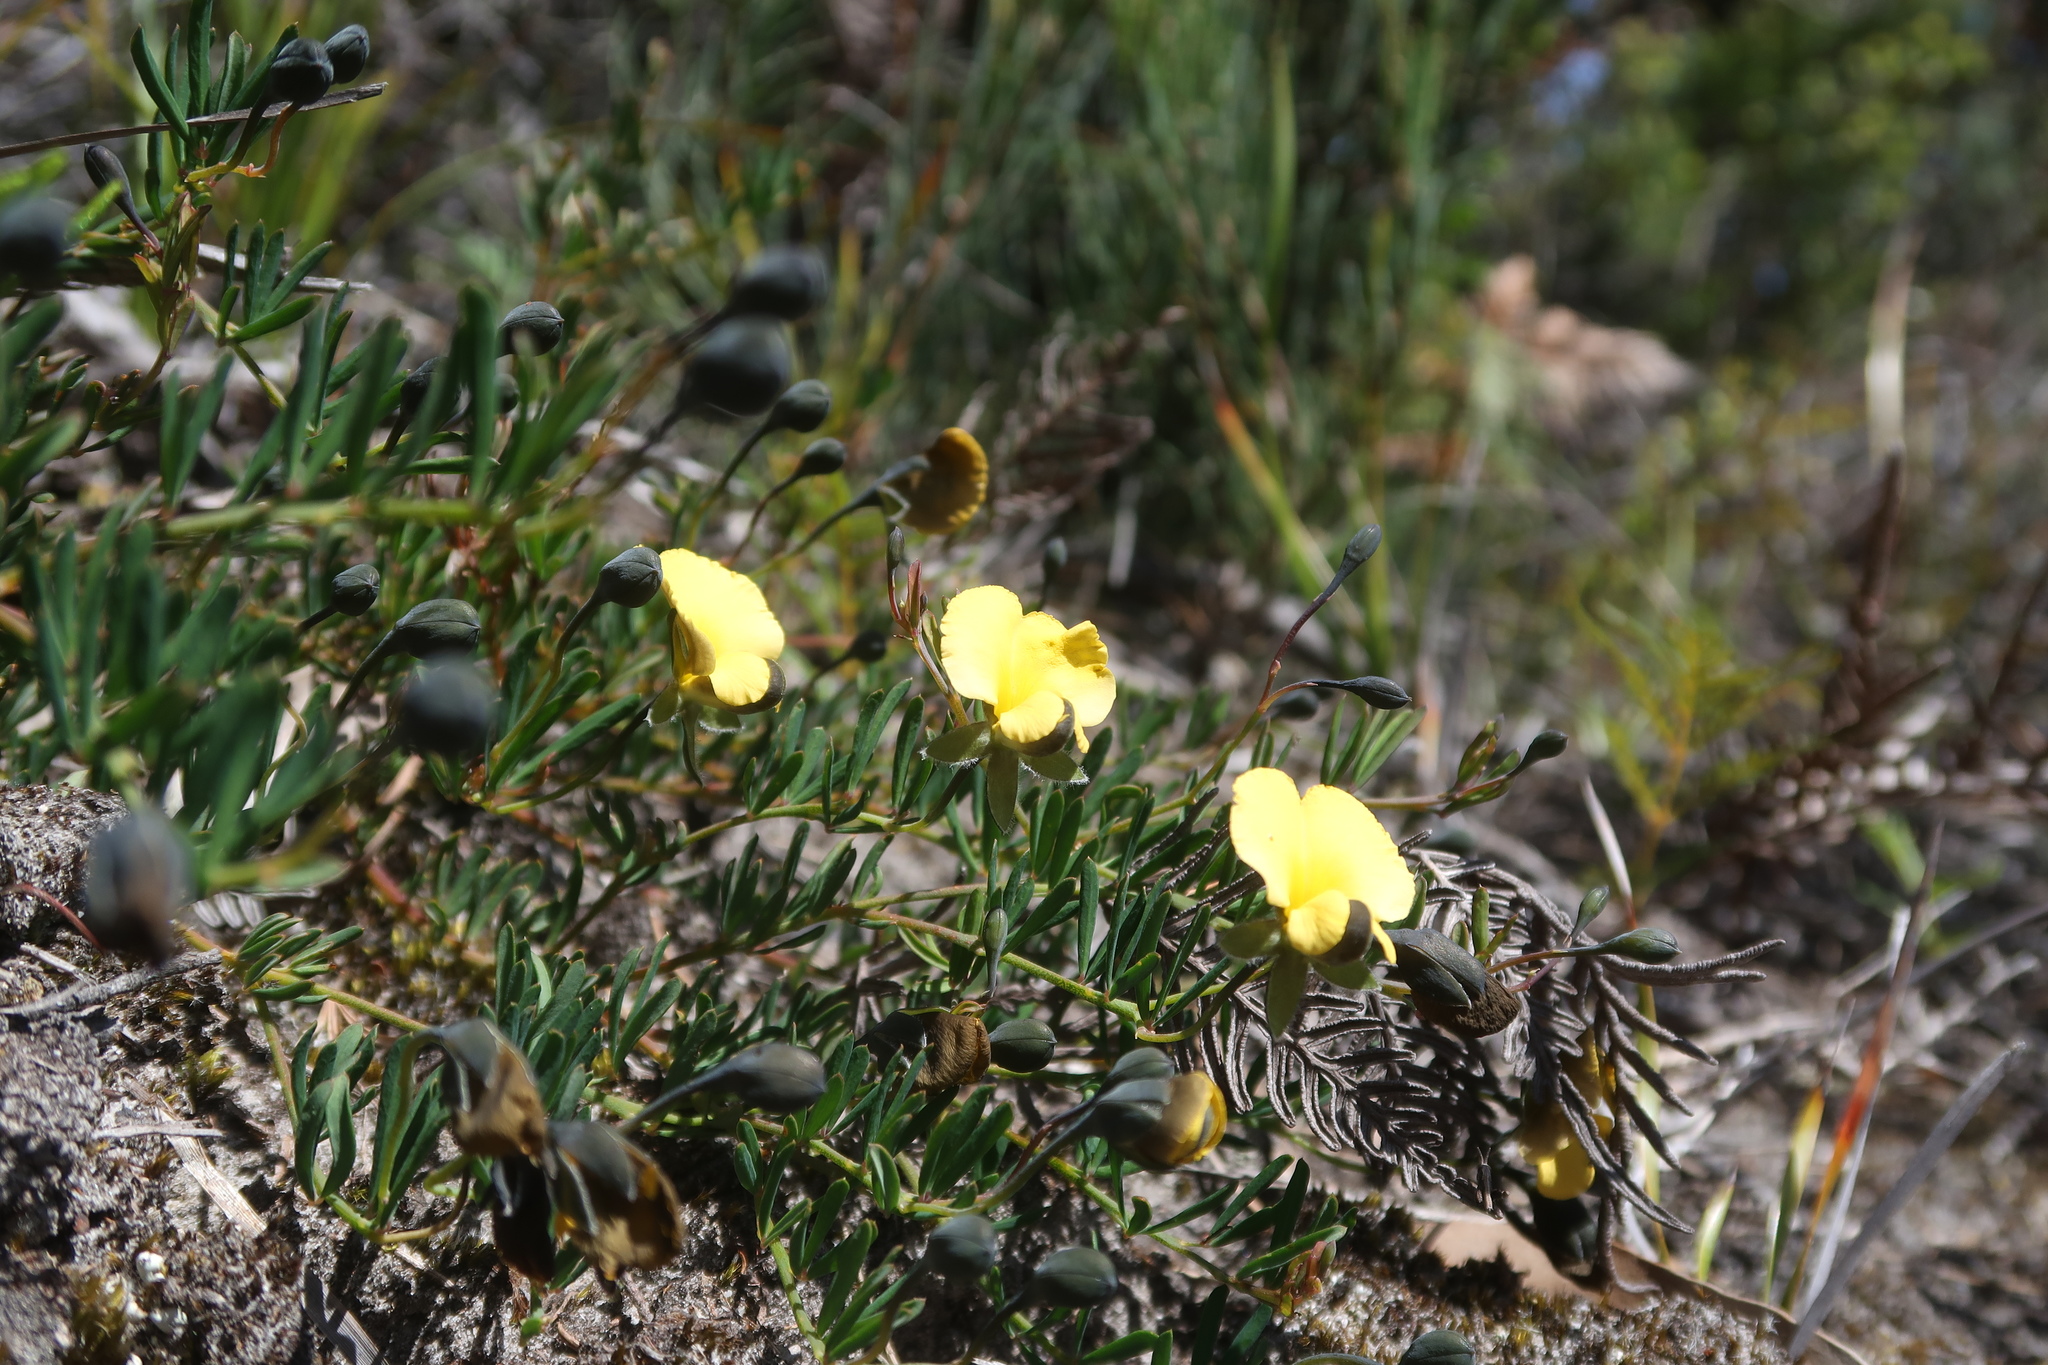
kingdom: Plantae
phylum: Tracheophyta
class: Magnoliopsida
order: Fabales
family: Fabaceae
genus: Gompholobium
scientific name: Gompholobium huegelii
